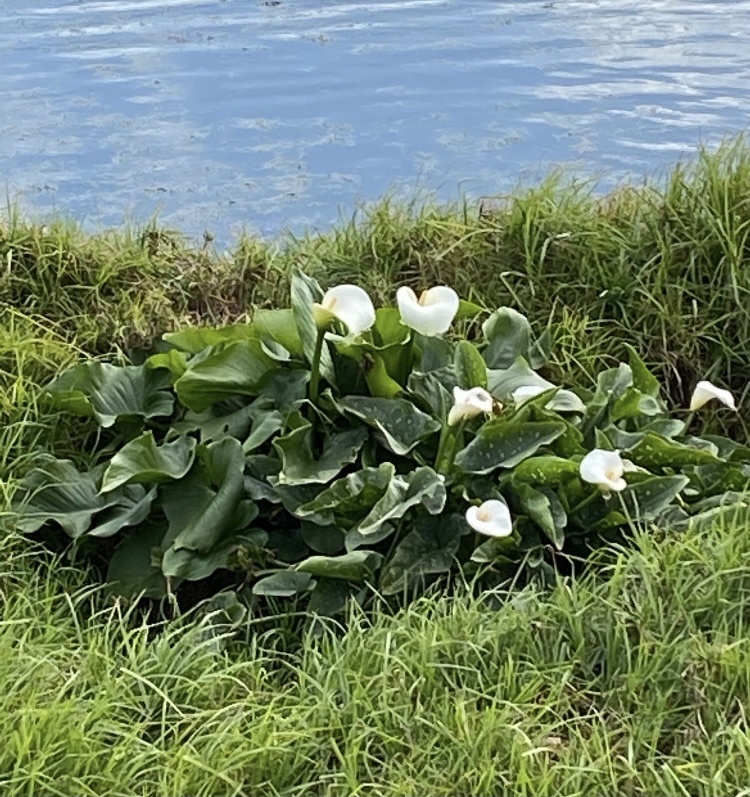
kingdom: Plantae
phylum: Tracheophyta
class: Liliopsida
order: Alismatales
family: Araceae
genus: Zantedeschia
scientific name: Zantedeschia aethiopica
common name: Altar-lily
